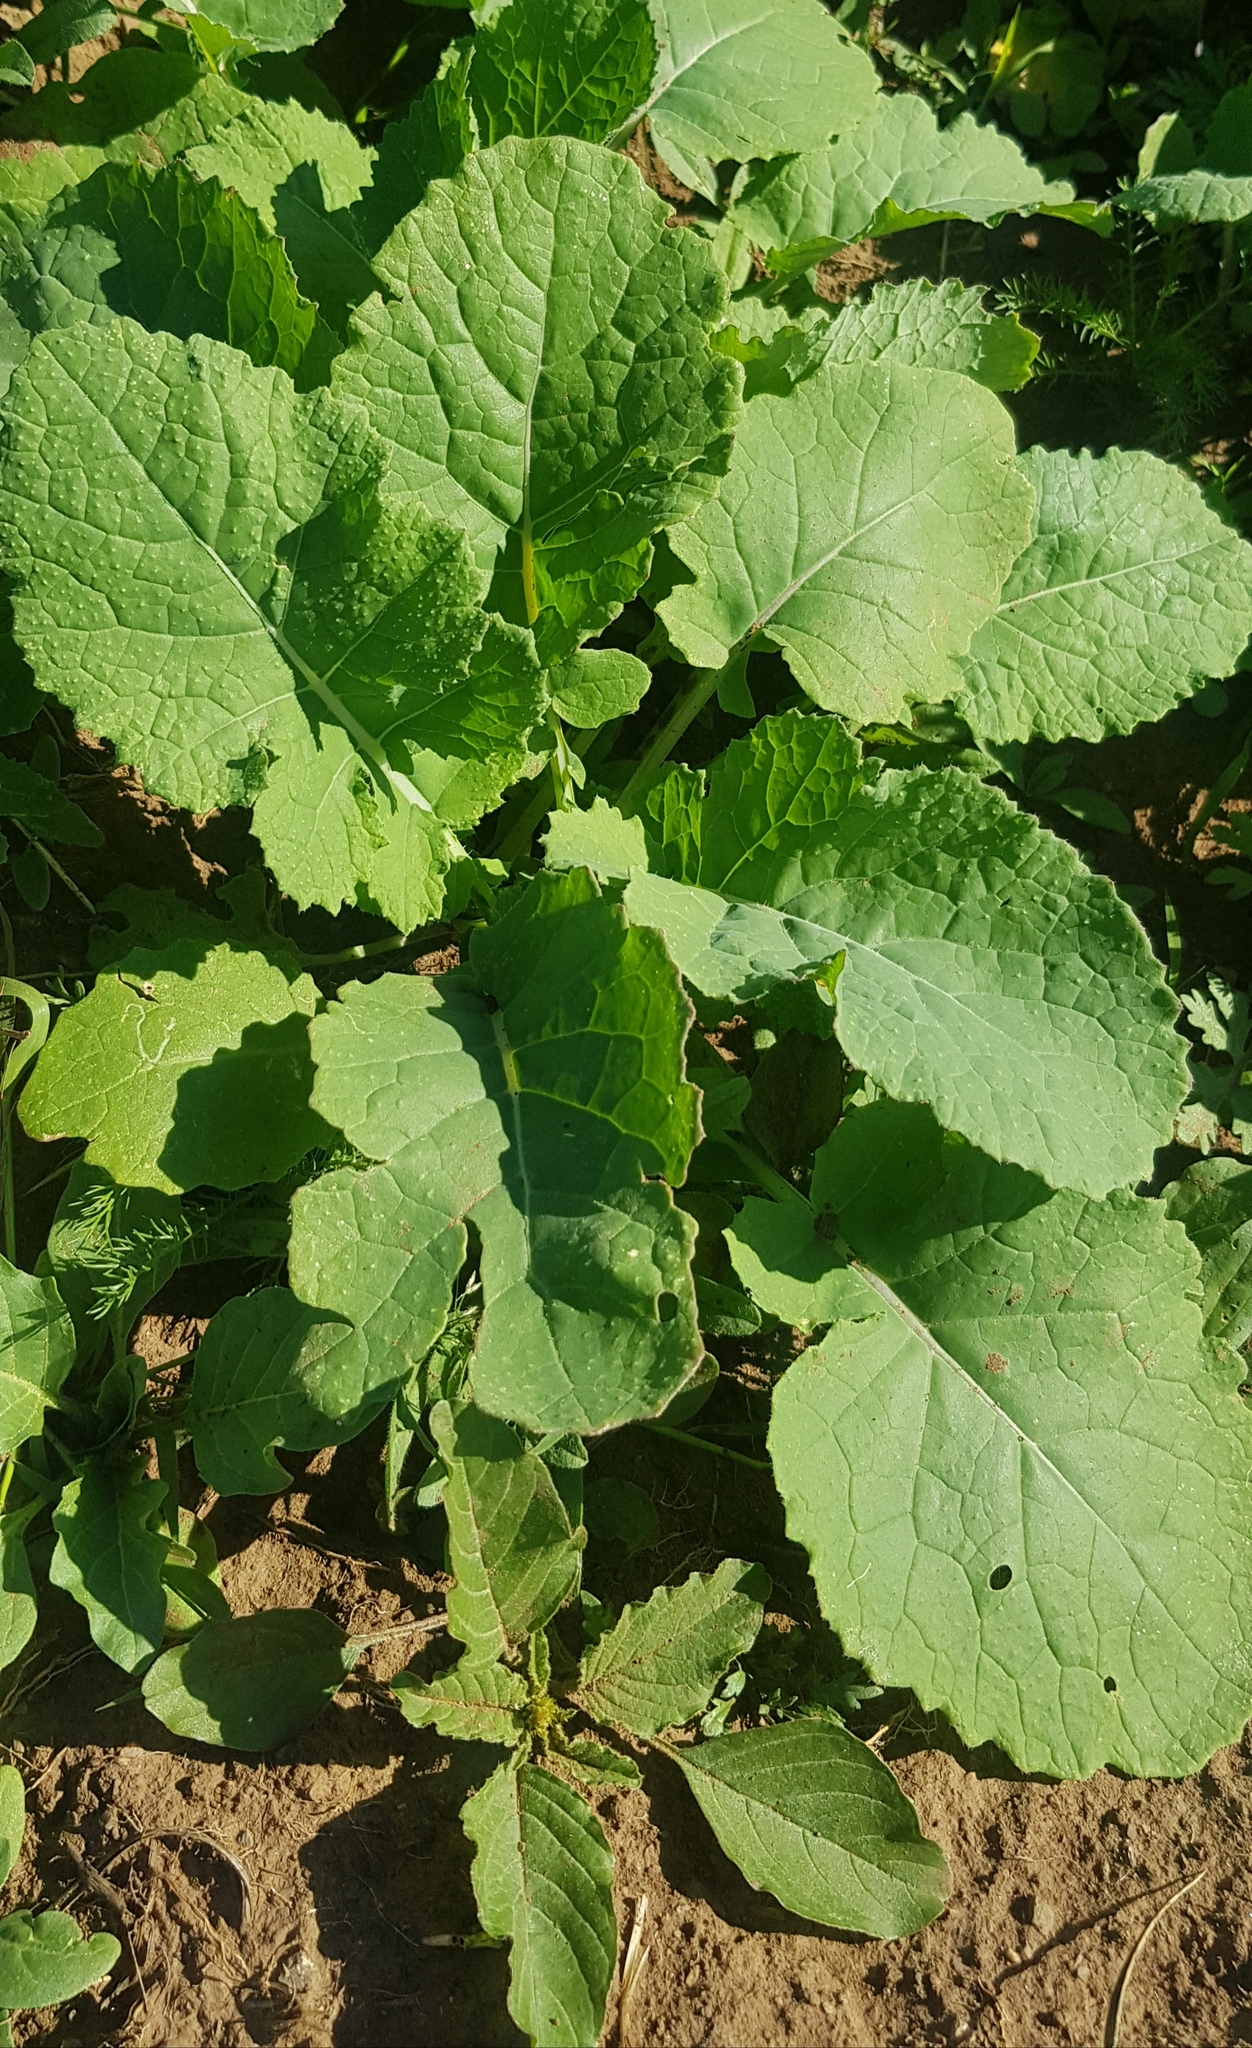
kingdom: Plantae
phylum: Tracheophyta
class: Magnoliopsida
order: Brassicales
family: Brassicaceae
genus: Brassica
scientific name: Brassica rapa
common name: Field mustard
